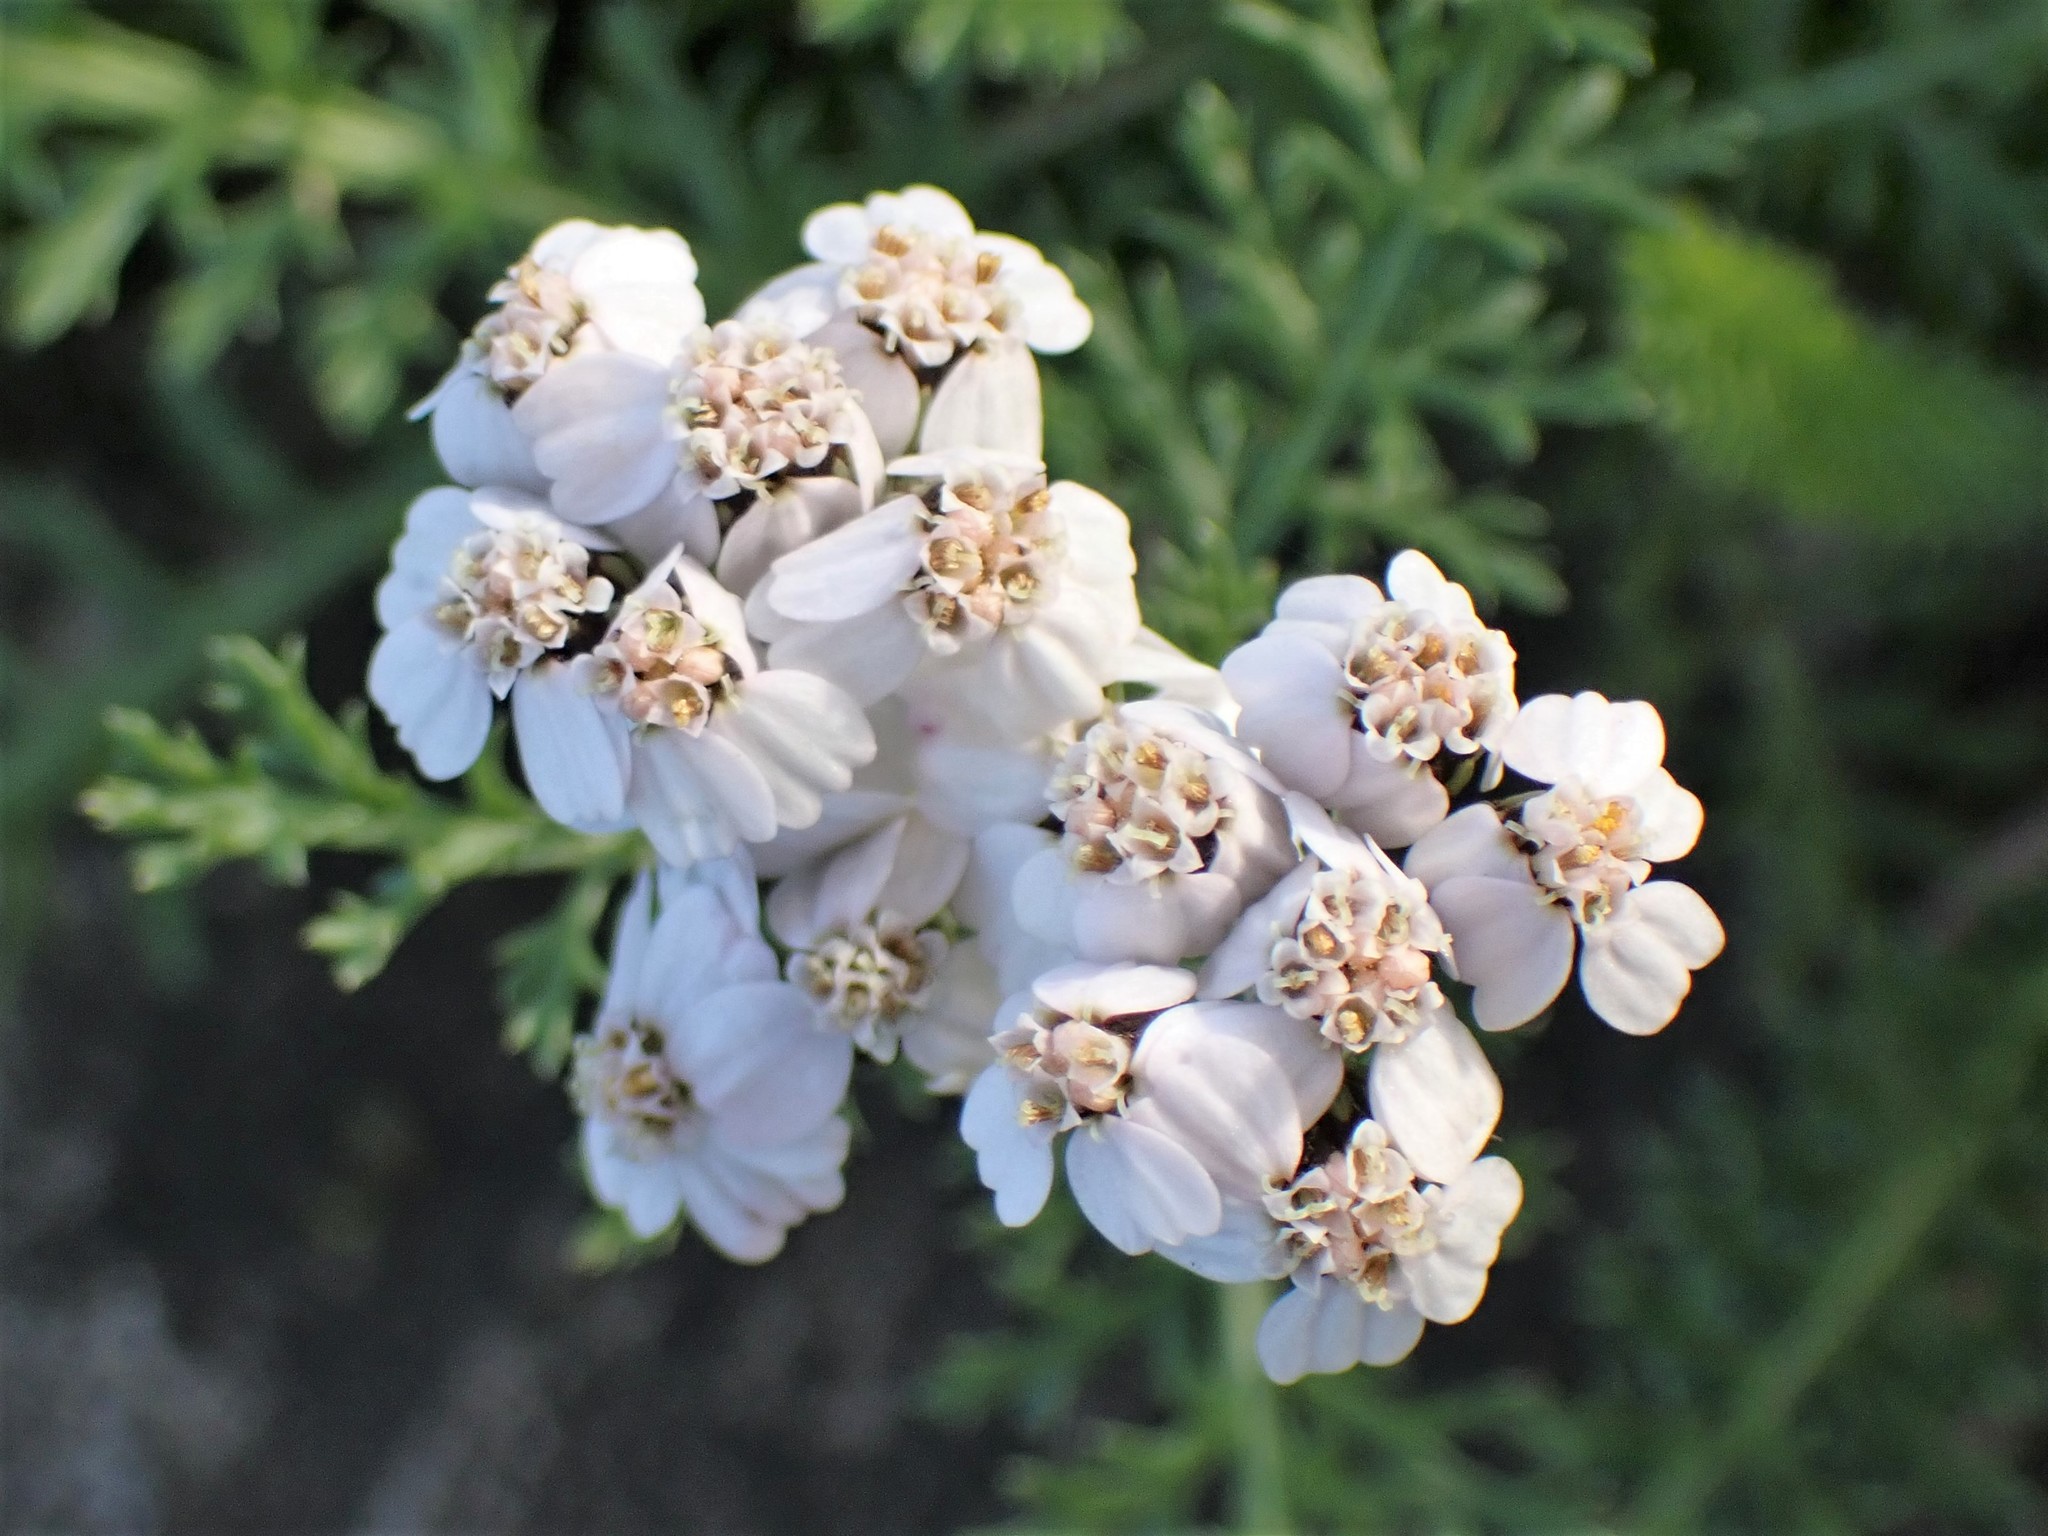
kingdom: Plantae
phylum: Tracheophyta
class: Magnoliopsida
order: Asterales
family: Asteraceae
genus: Achillea
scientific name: Achillea millefolium
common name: Yarrow
